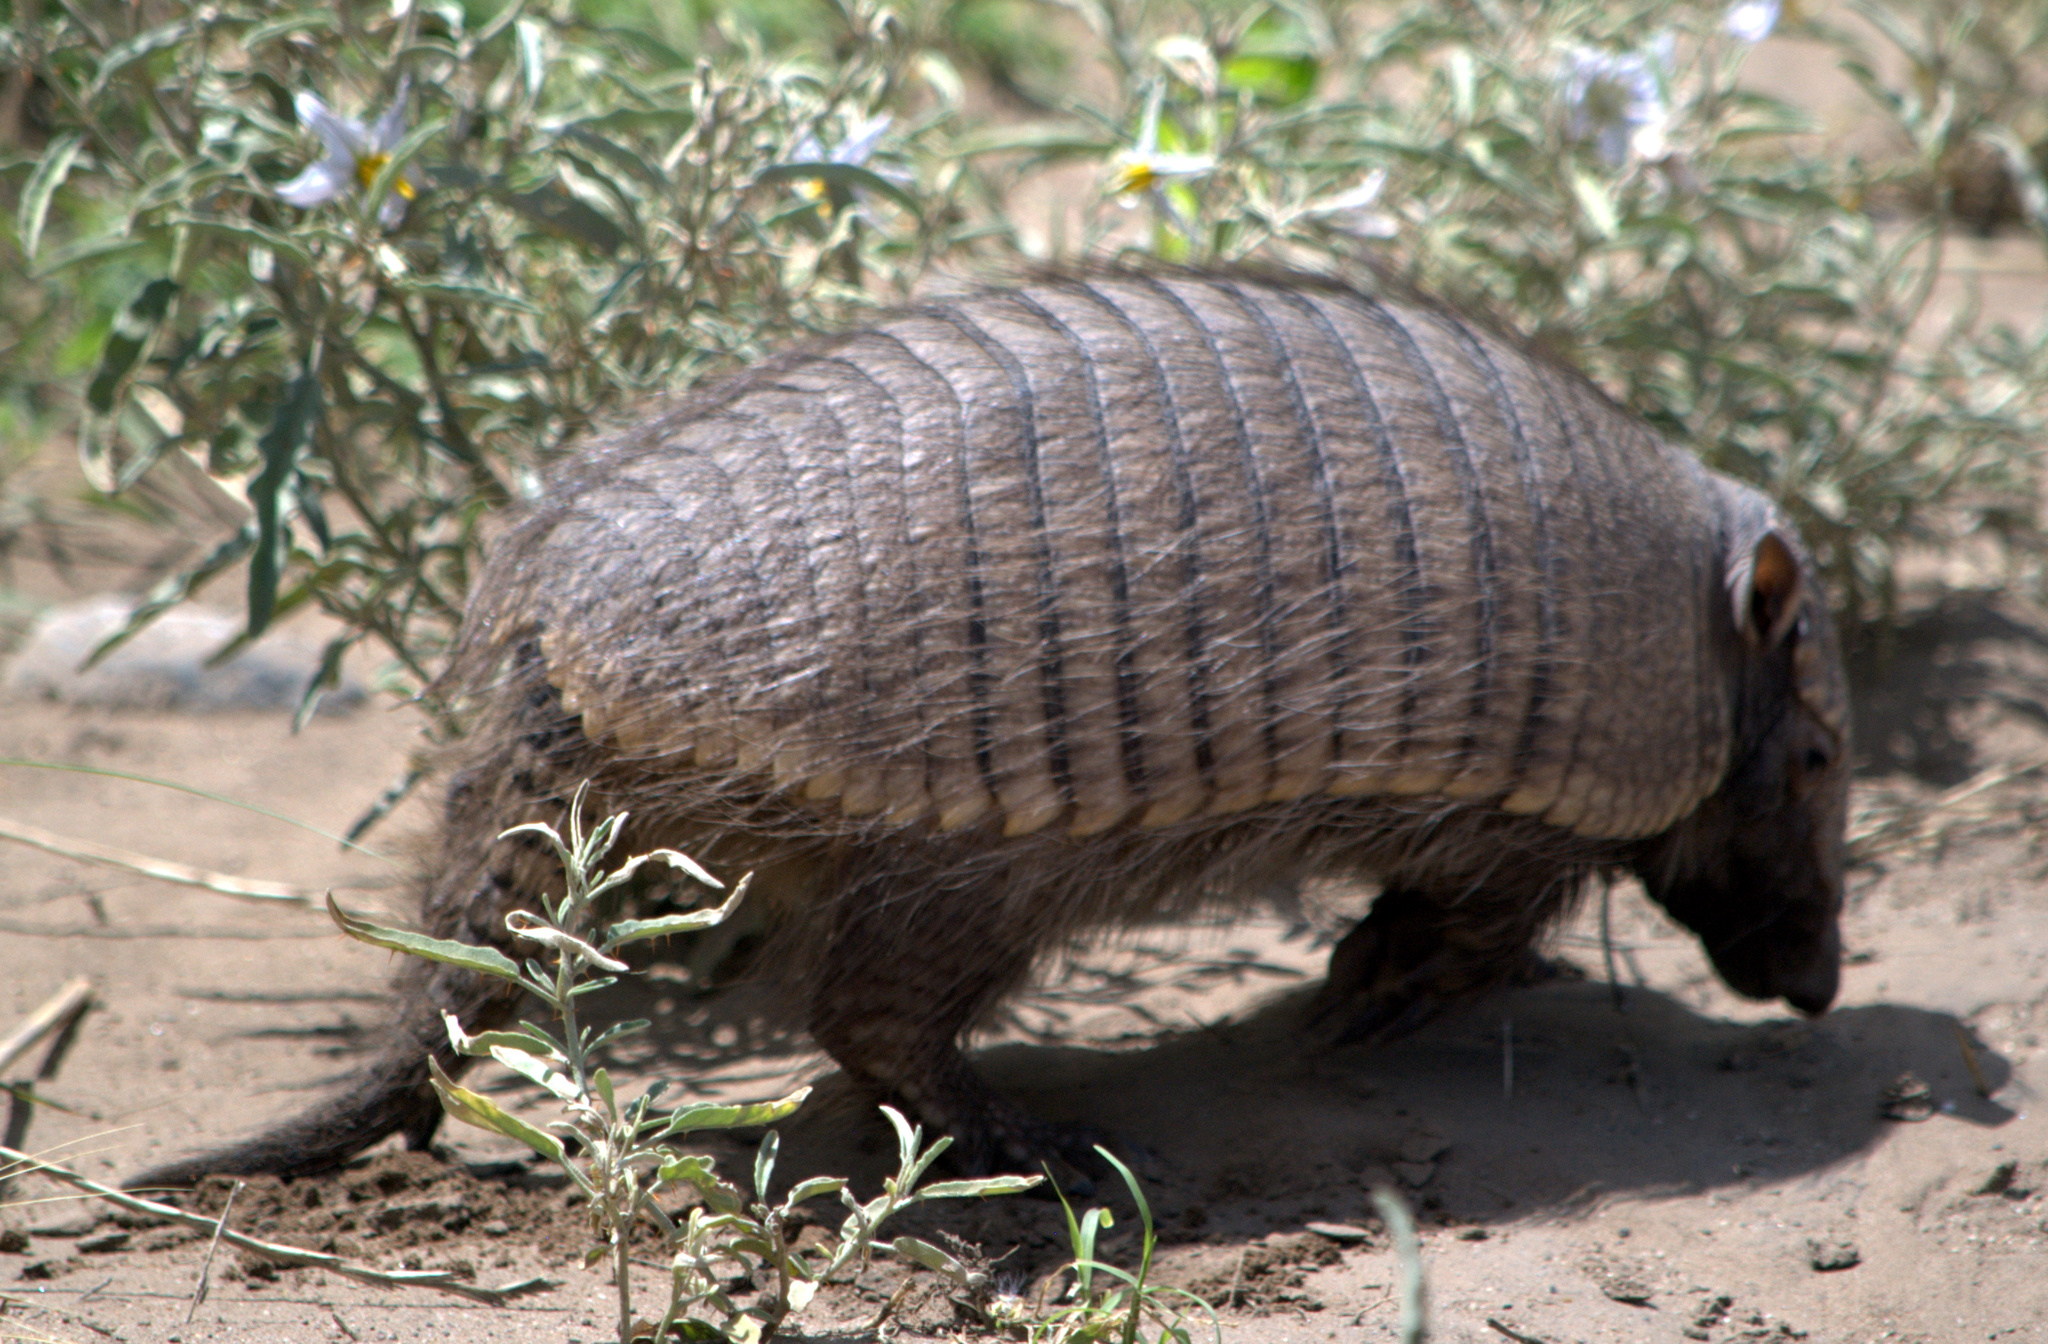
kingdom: Animalia
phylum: Chordata
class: Mammalia
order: Cingulata
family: Dasypodidae
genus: Chaetophractus
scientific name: Chaetophractus villosus
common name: Big hairy armadillo
